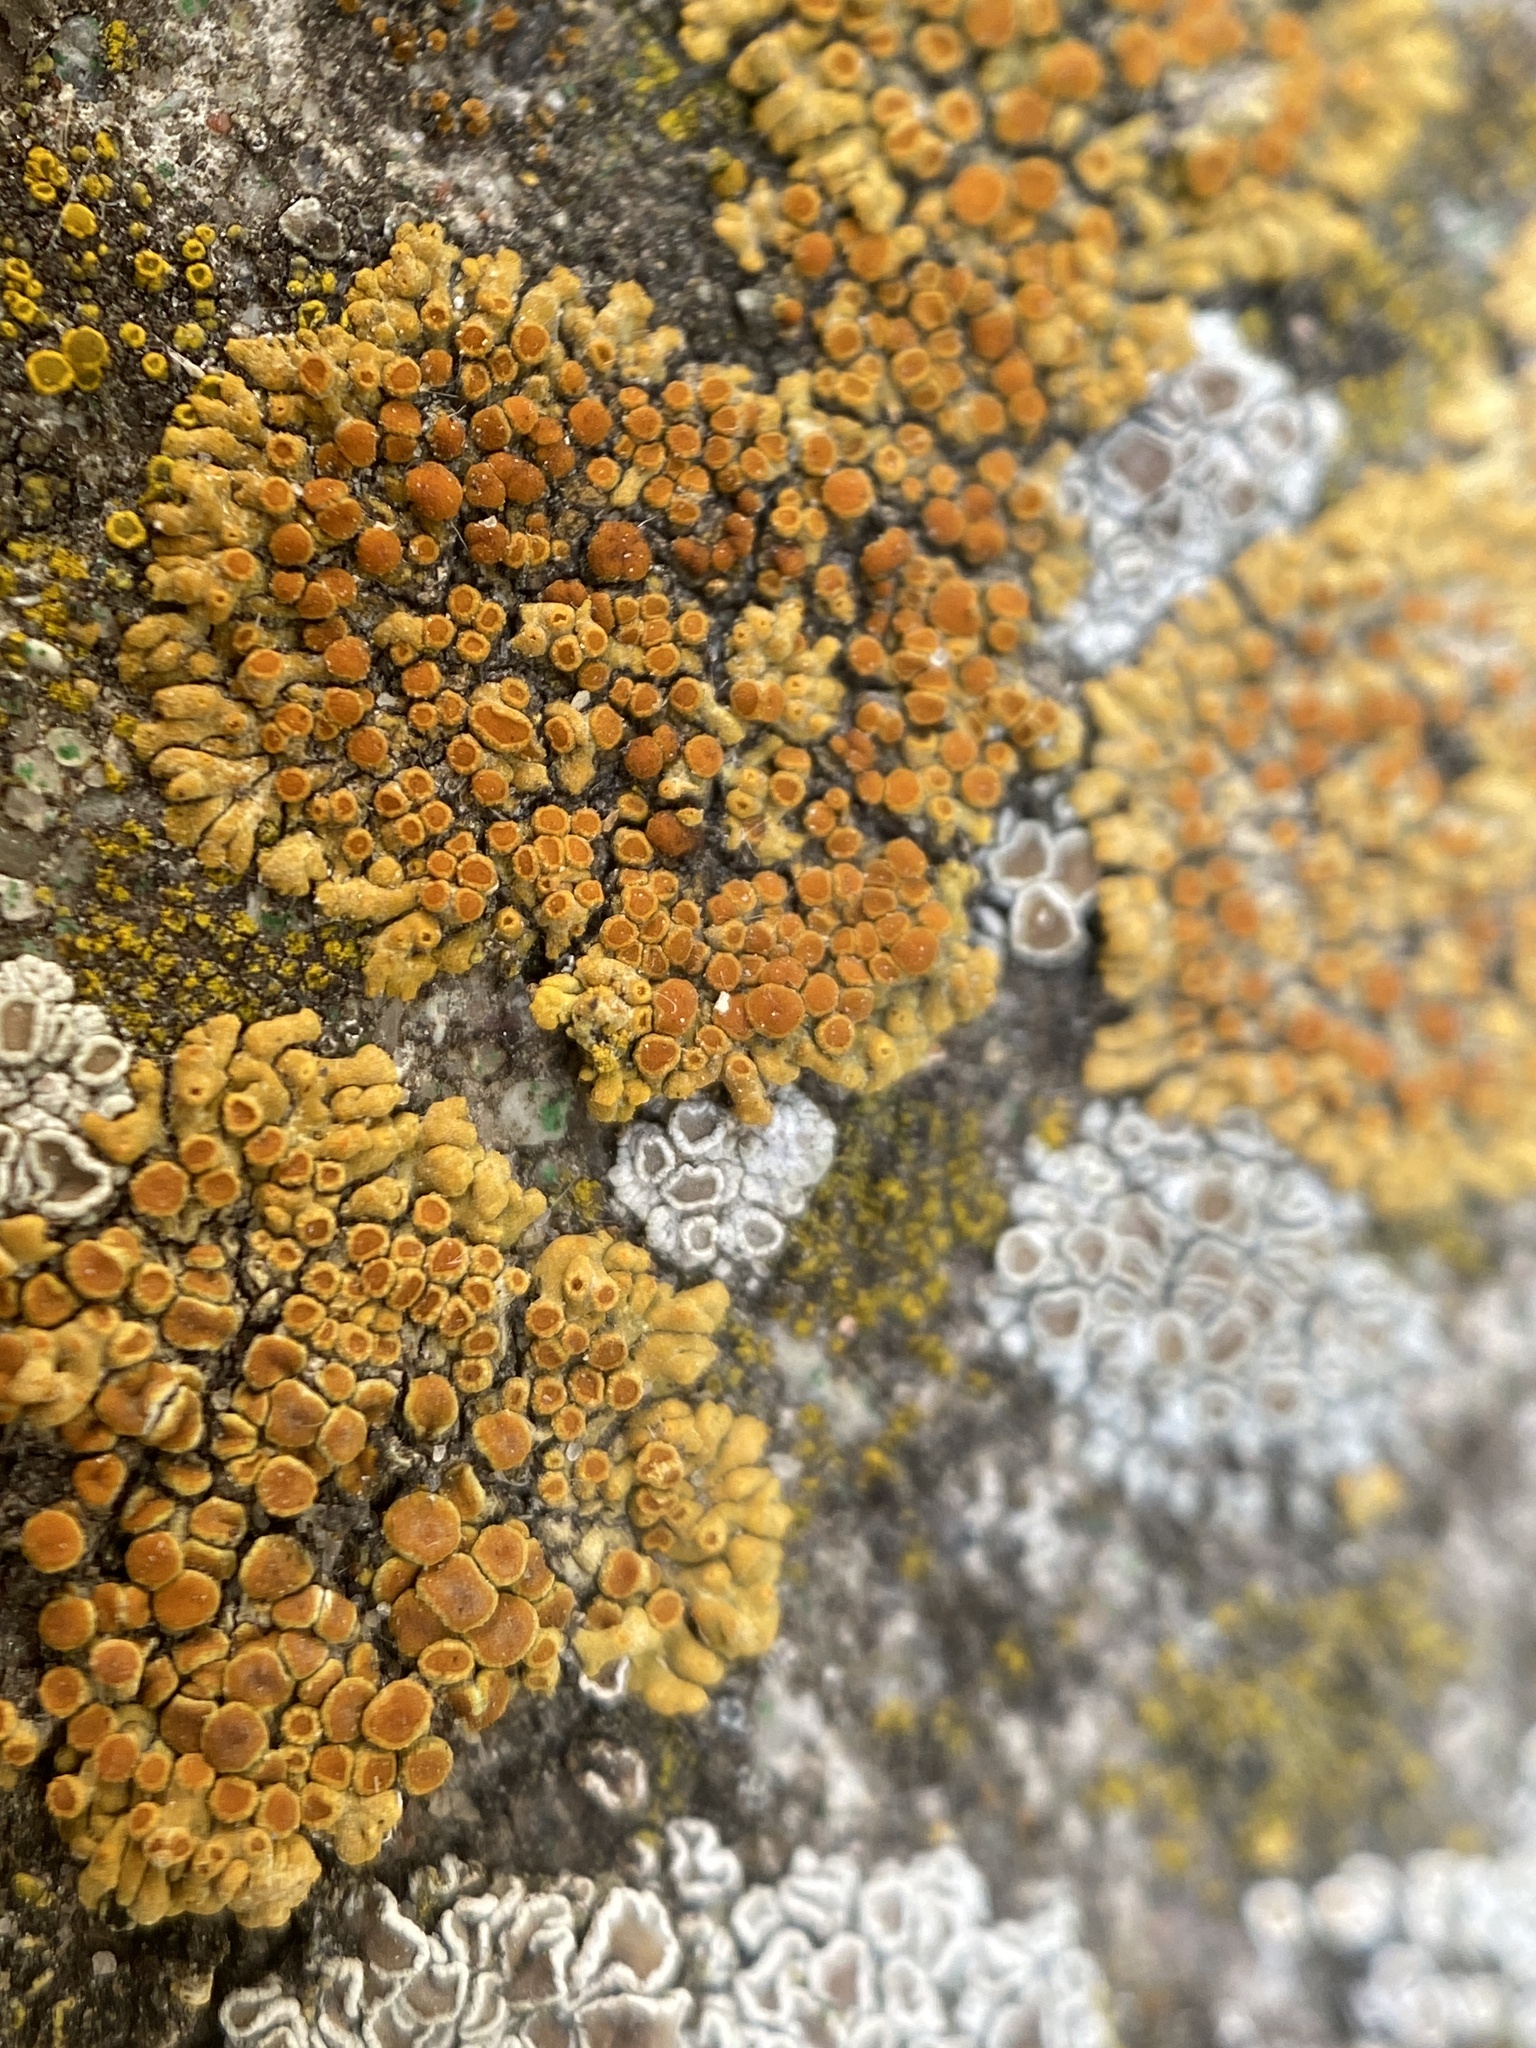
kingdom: Fungi
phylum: Ascomycota
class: Lecanoromycetes
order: Teloschistales
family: Teloschistaceae
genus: Calogaya
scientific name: Calogaya pusilla
